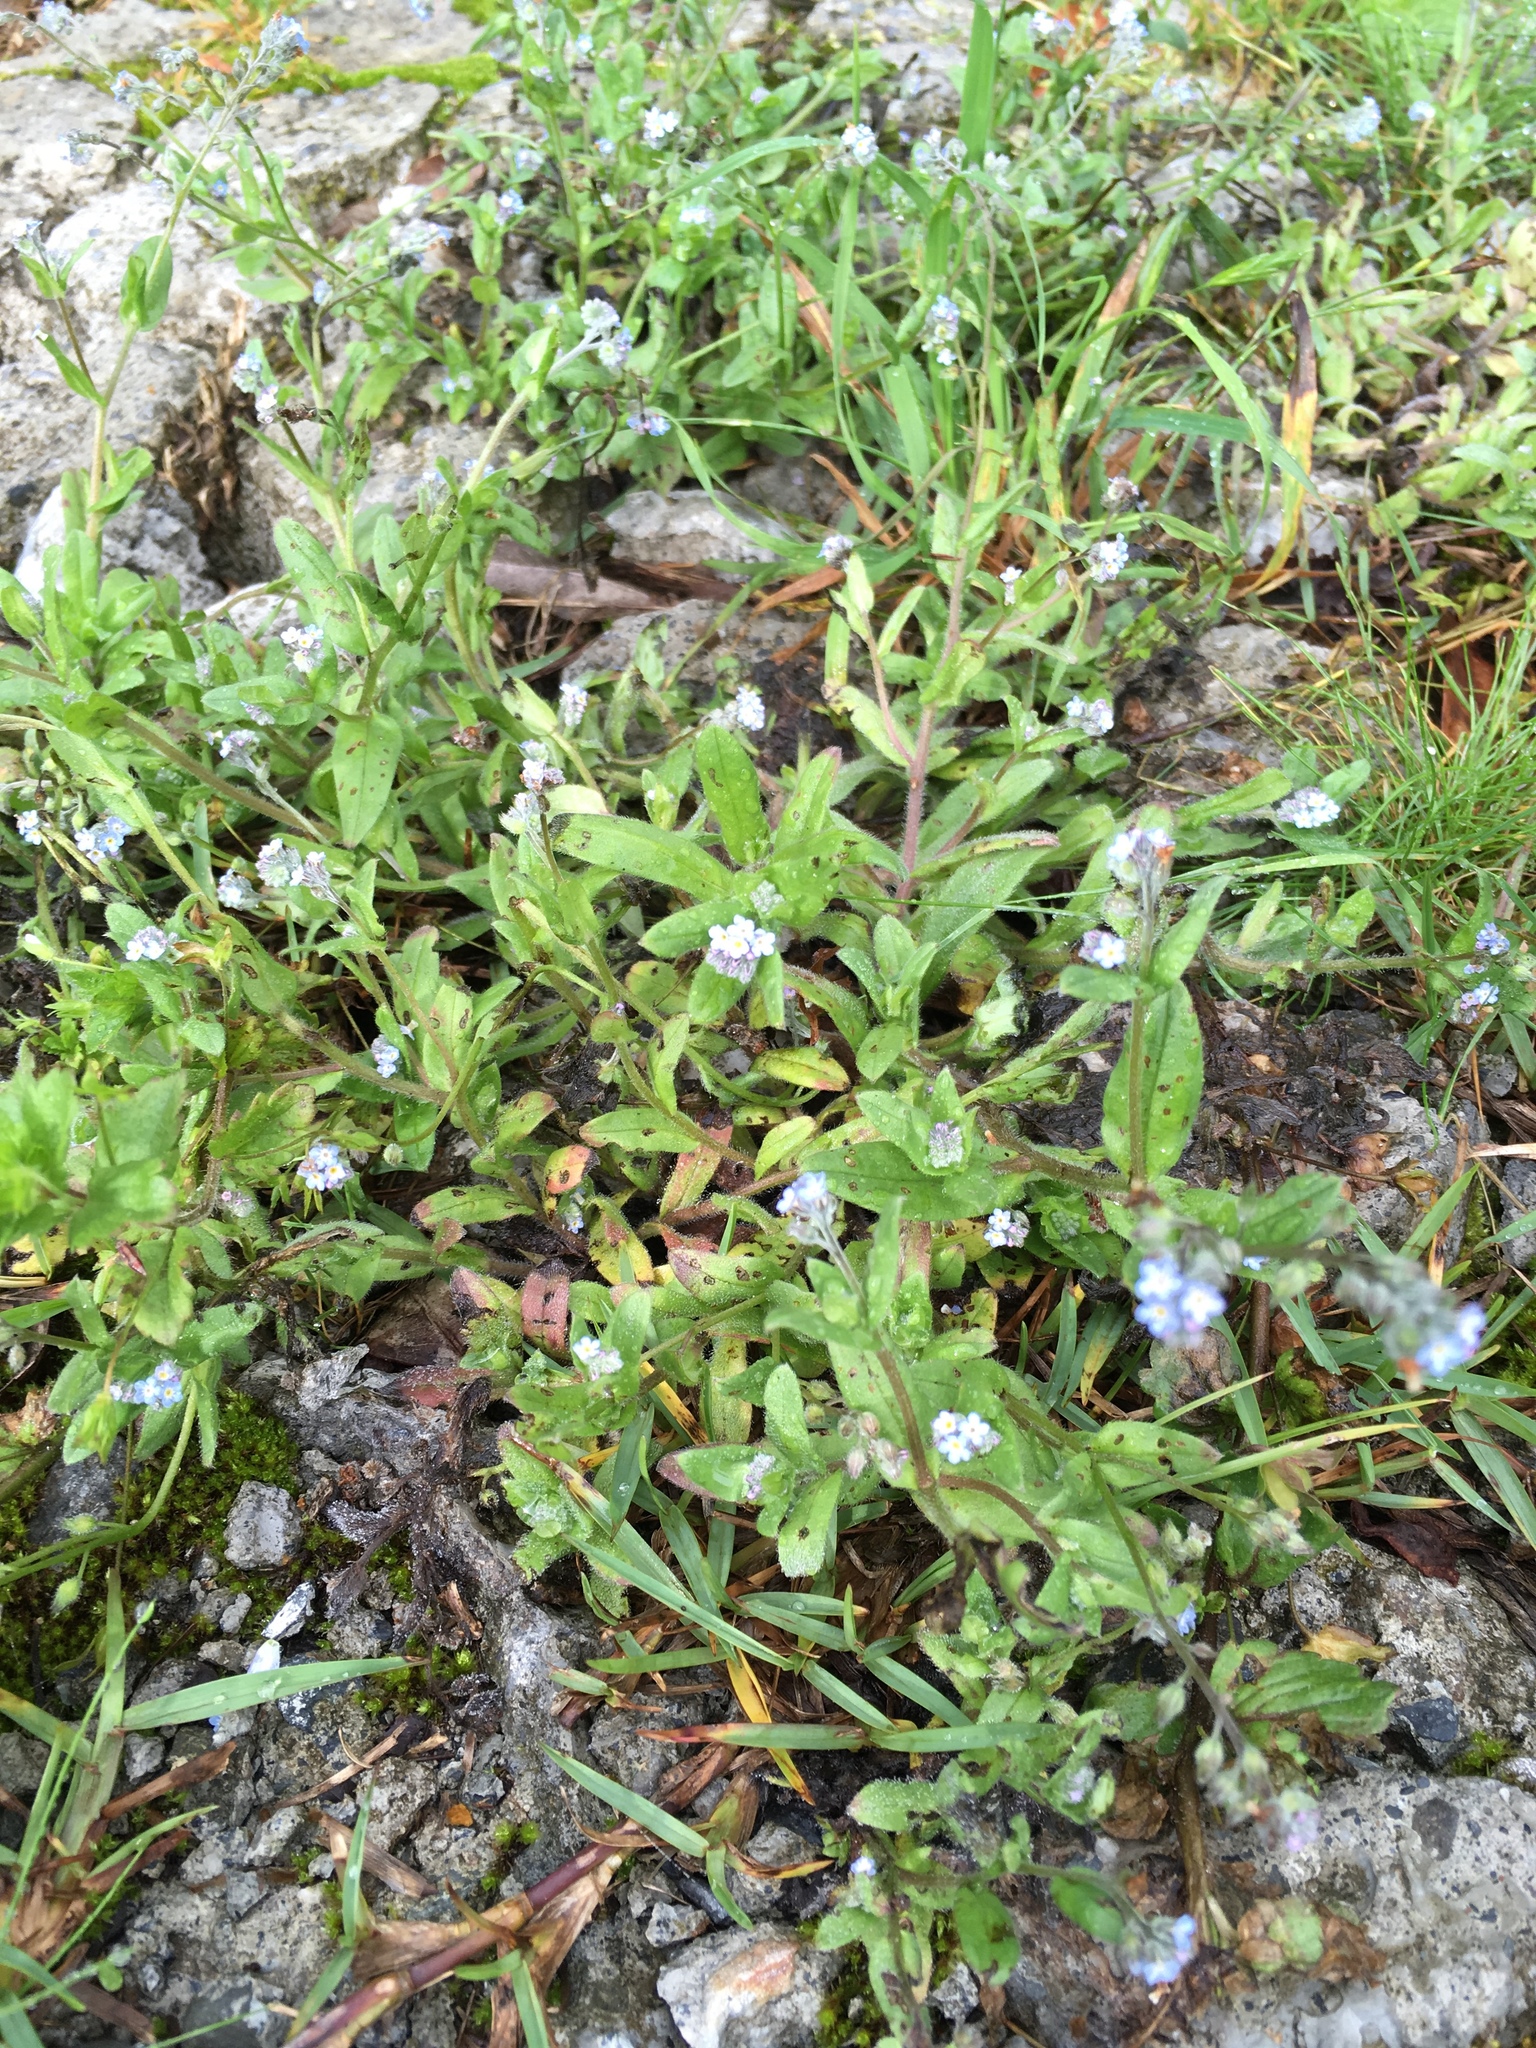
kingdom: Plantae
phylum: Tracheophyta
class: Magnoliopsida
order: Boraginales
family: Boraginaceae
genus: Myosotis
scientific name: Myosotis arvensis
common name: Field forget-me-not
